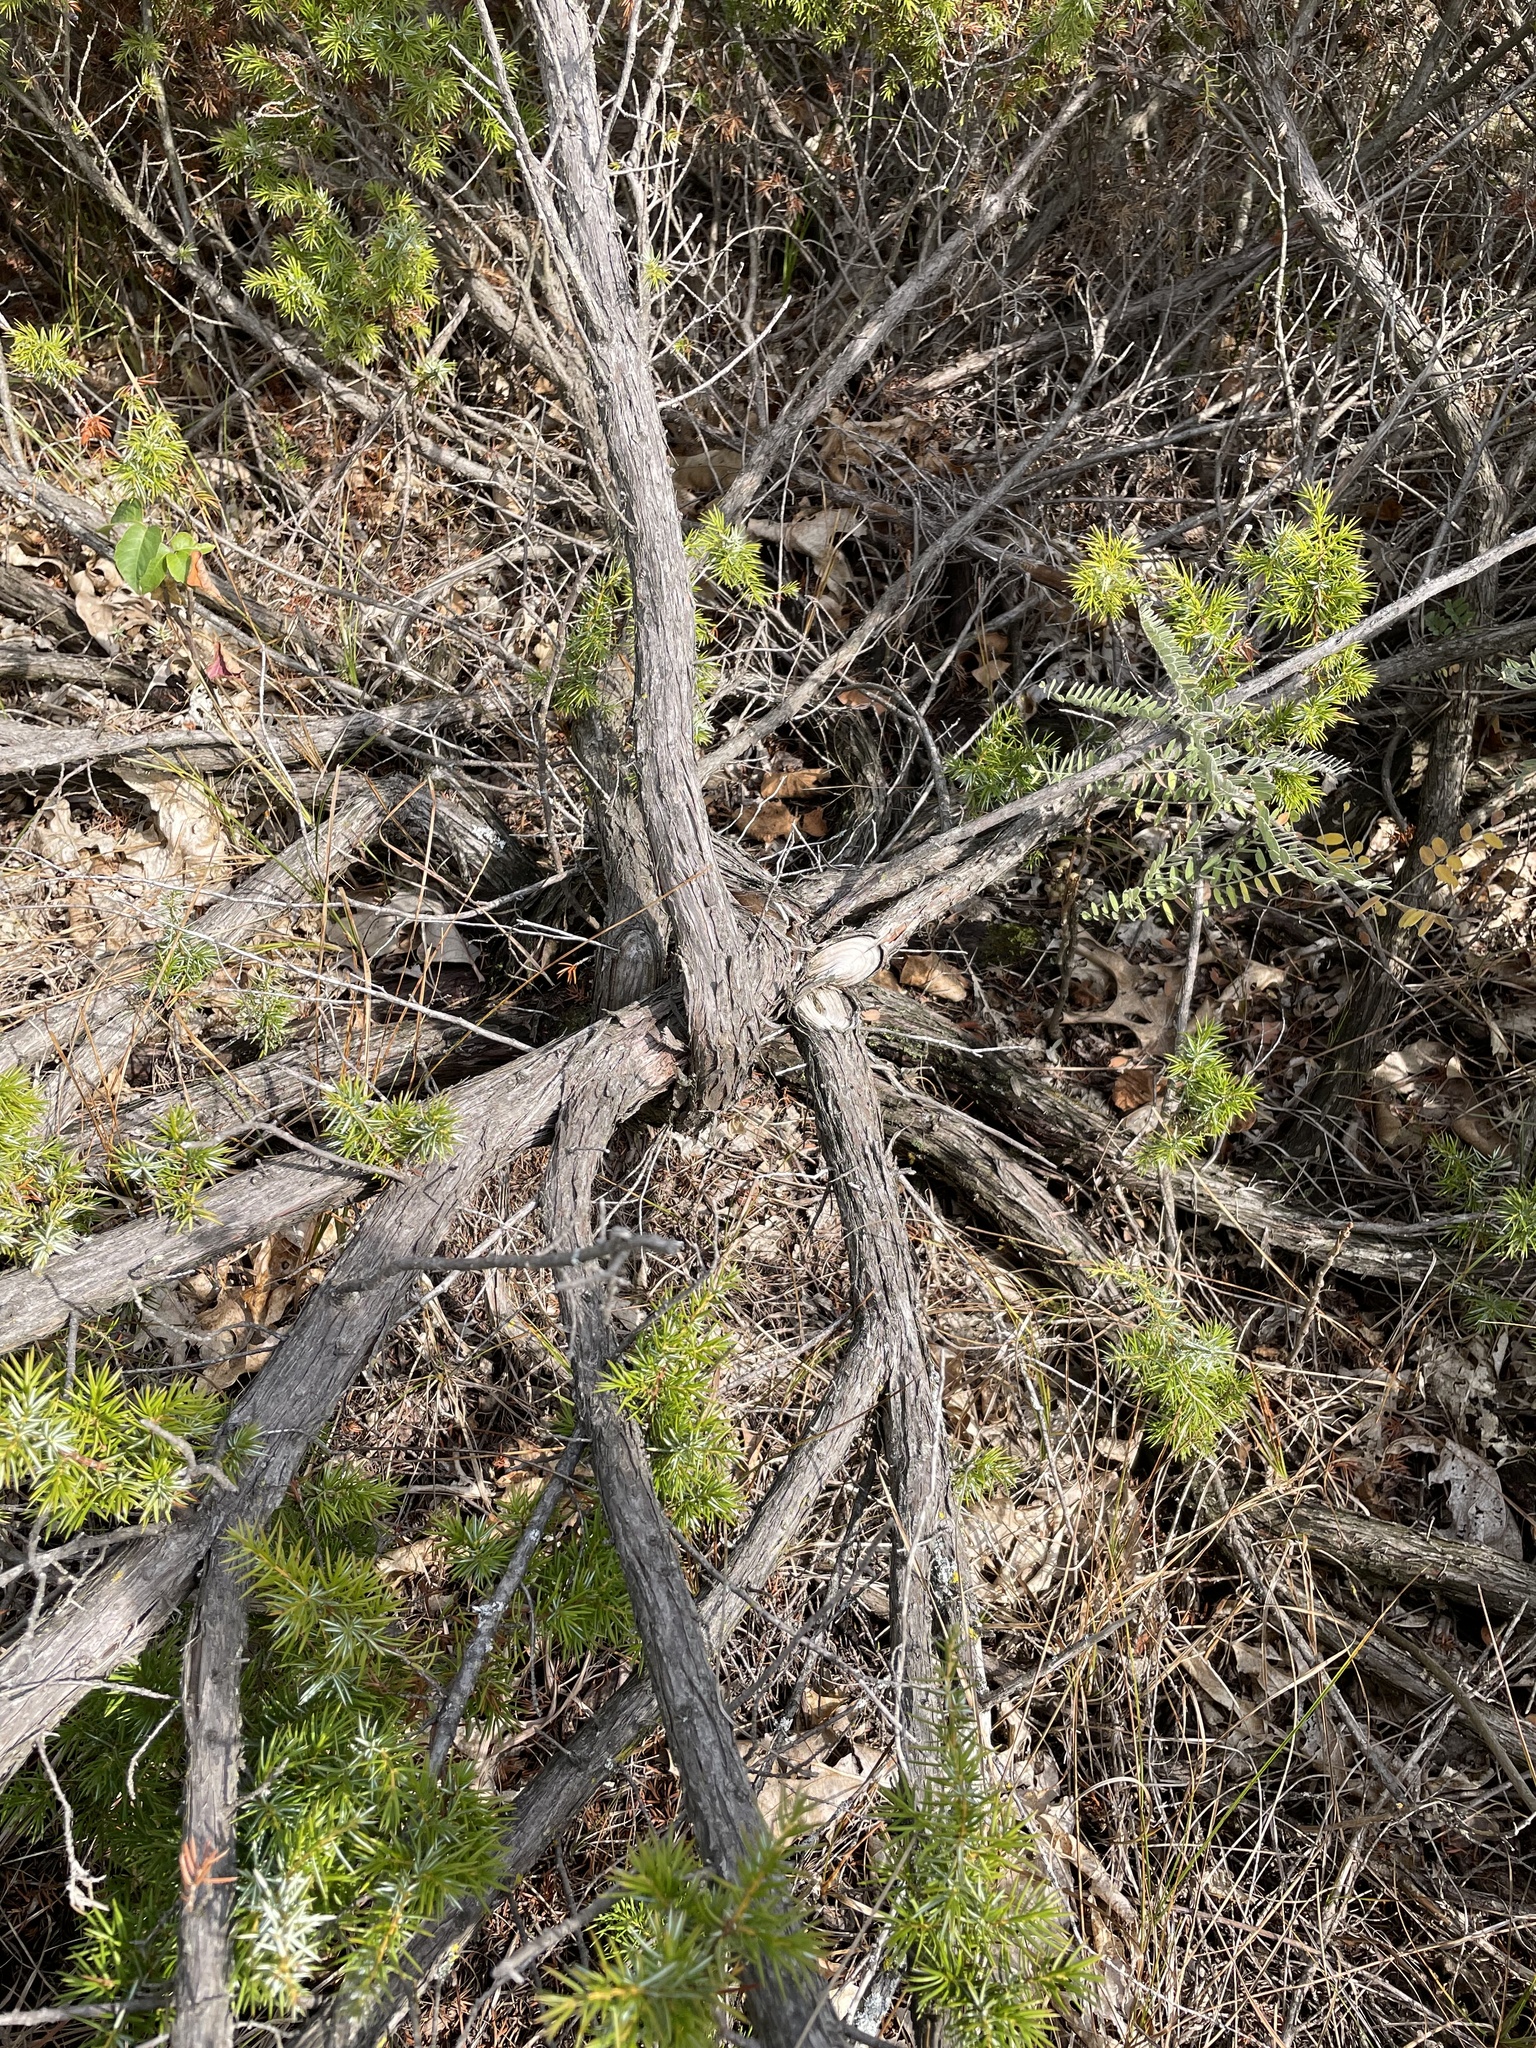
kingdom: Plantae
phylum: Tracheophyta
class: Pinopsida
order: Pinales
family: Cupressaceae
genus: Juniperus
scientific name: Juniperus communis
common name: Common juniper
